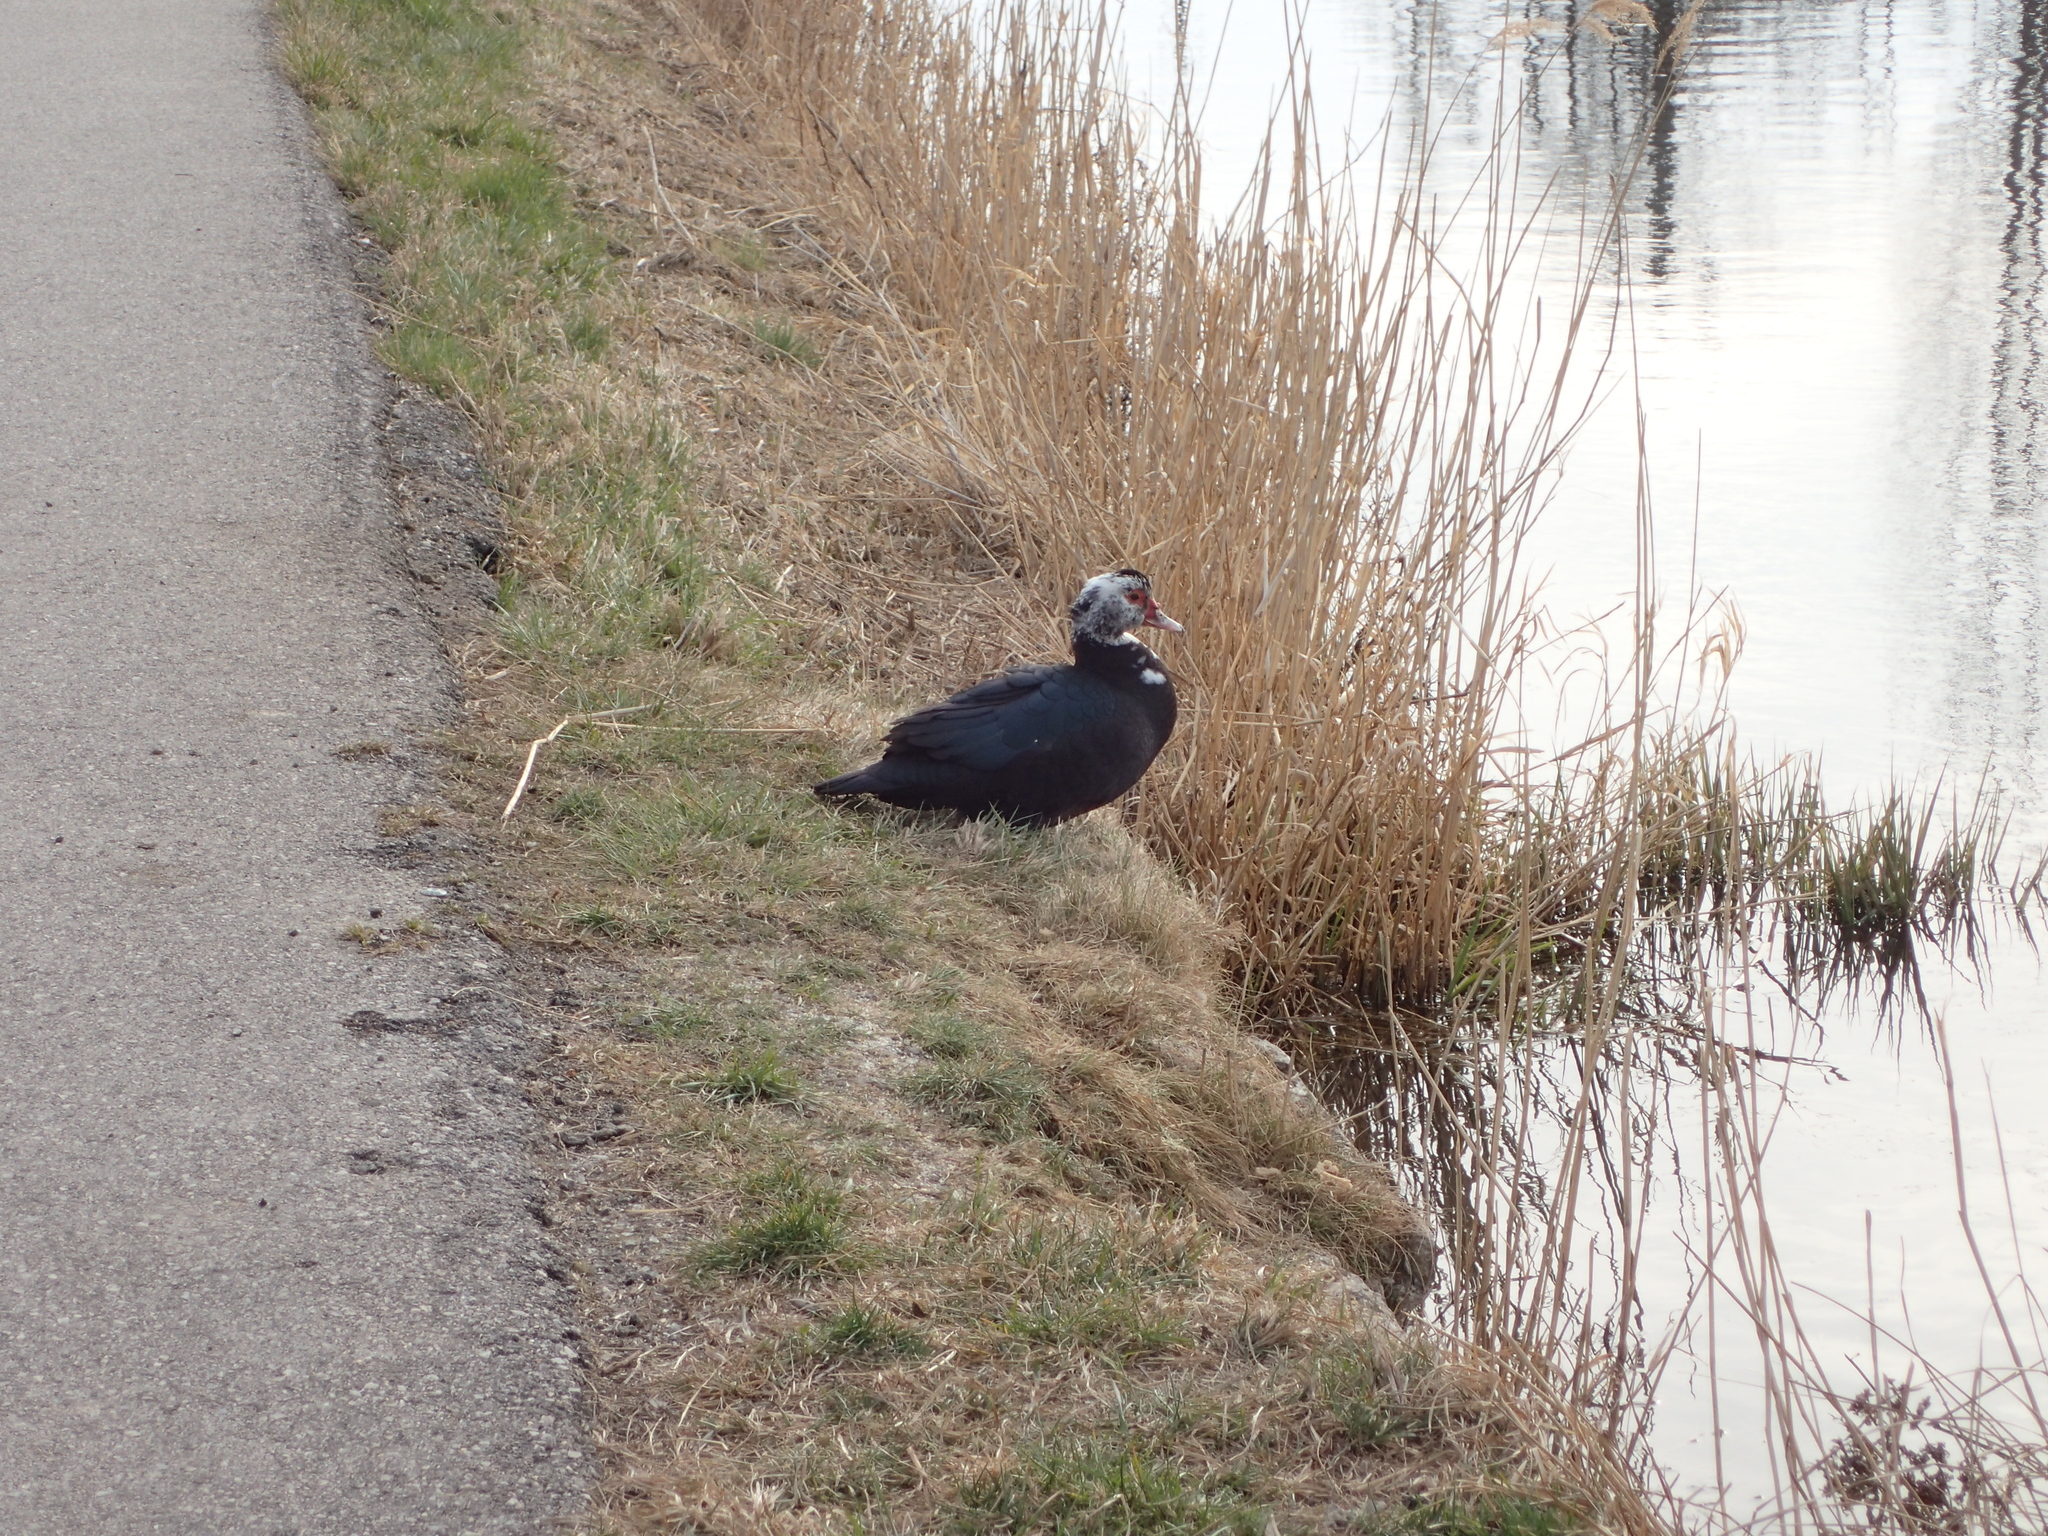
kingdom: Animalia
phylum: Chordata
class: Aves
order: Anseriformes
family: Anatidae
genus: Cairina
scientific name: Cairina moschata
